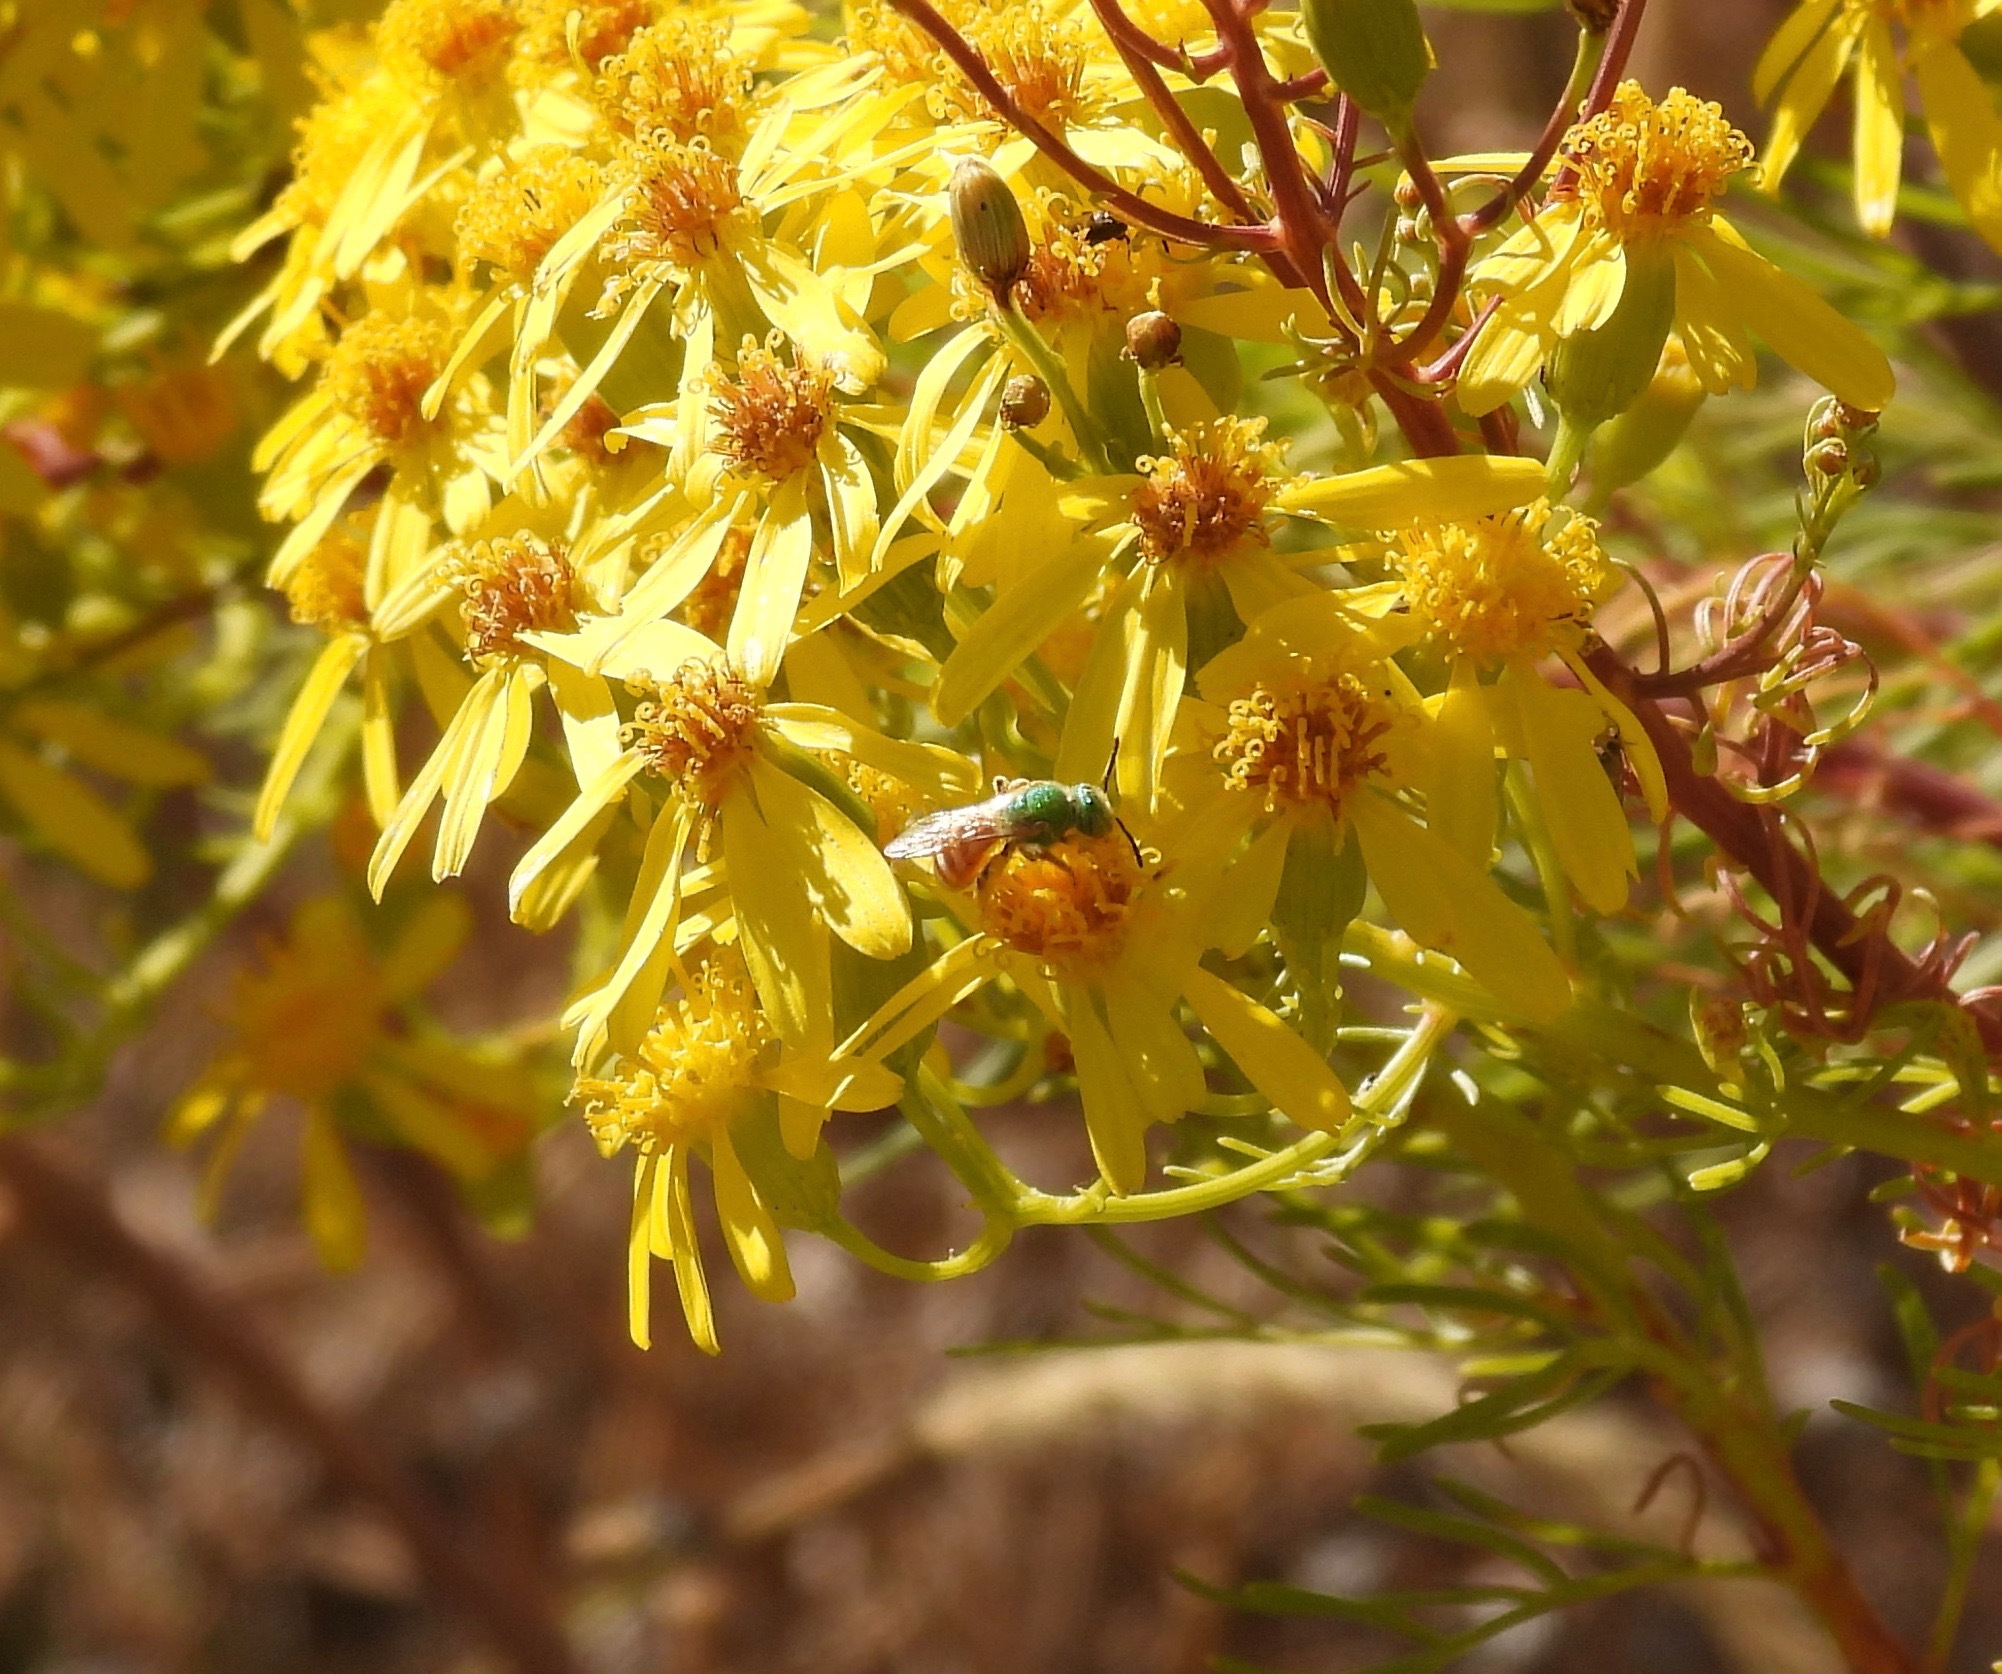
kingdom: Animalia
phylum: Arthropoda
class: Insecta
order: Hymenoptera
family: Halictidae
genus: Agapostemon
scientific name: Agapostemon melliventris
